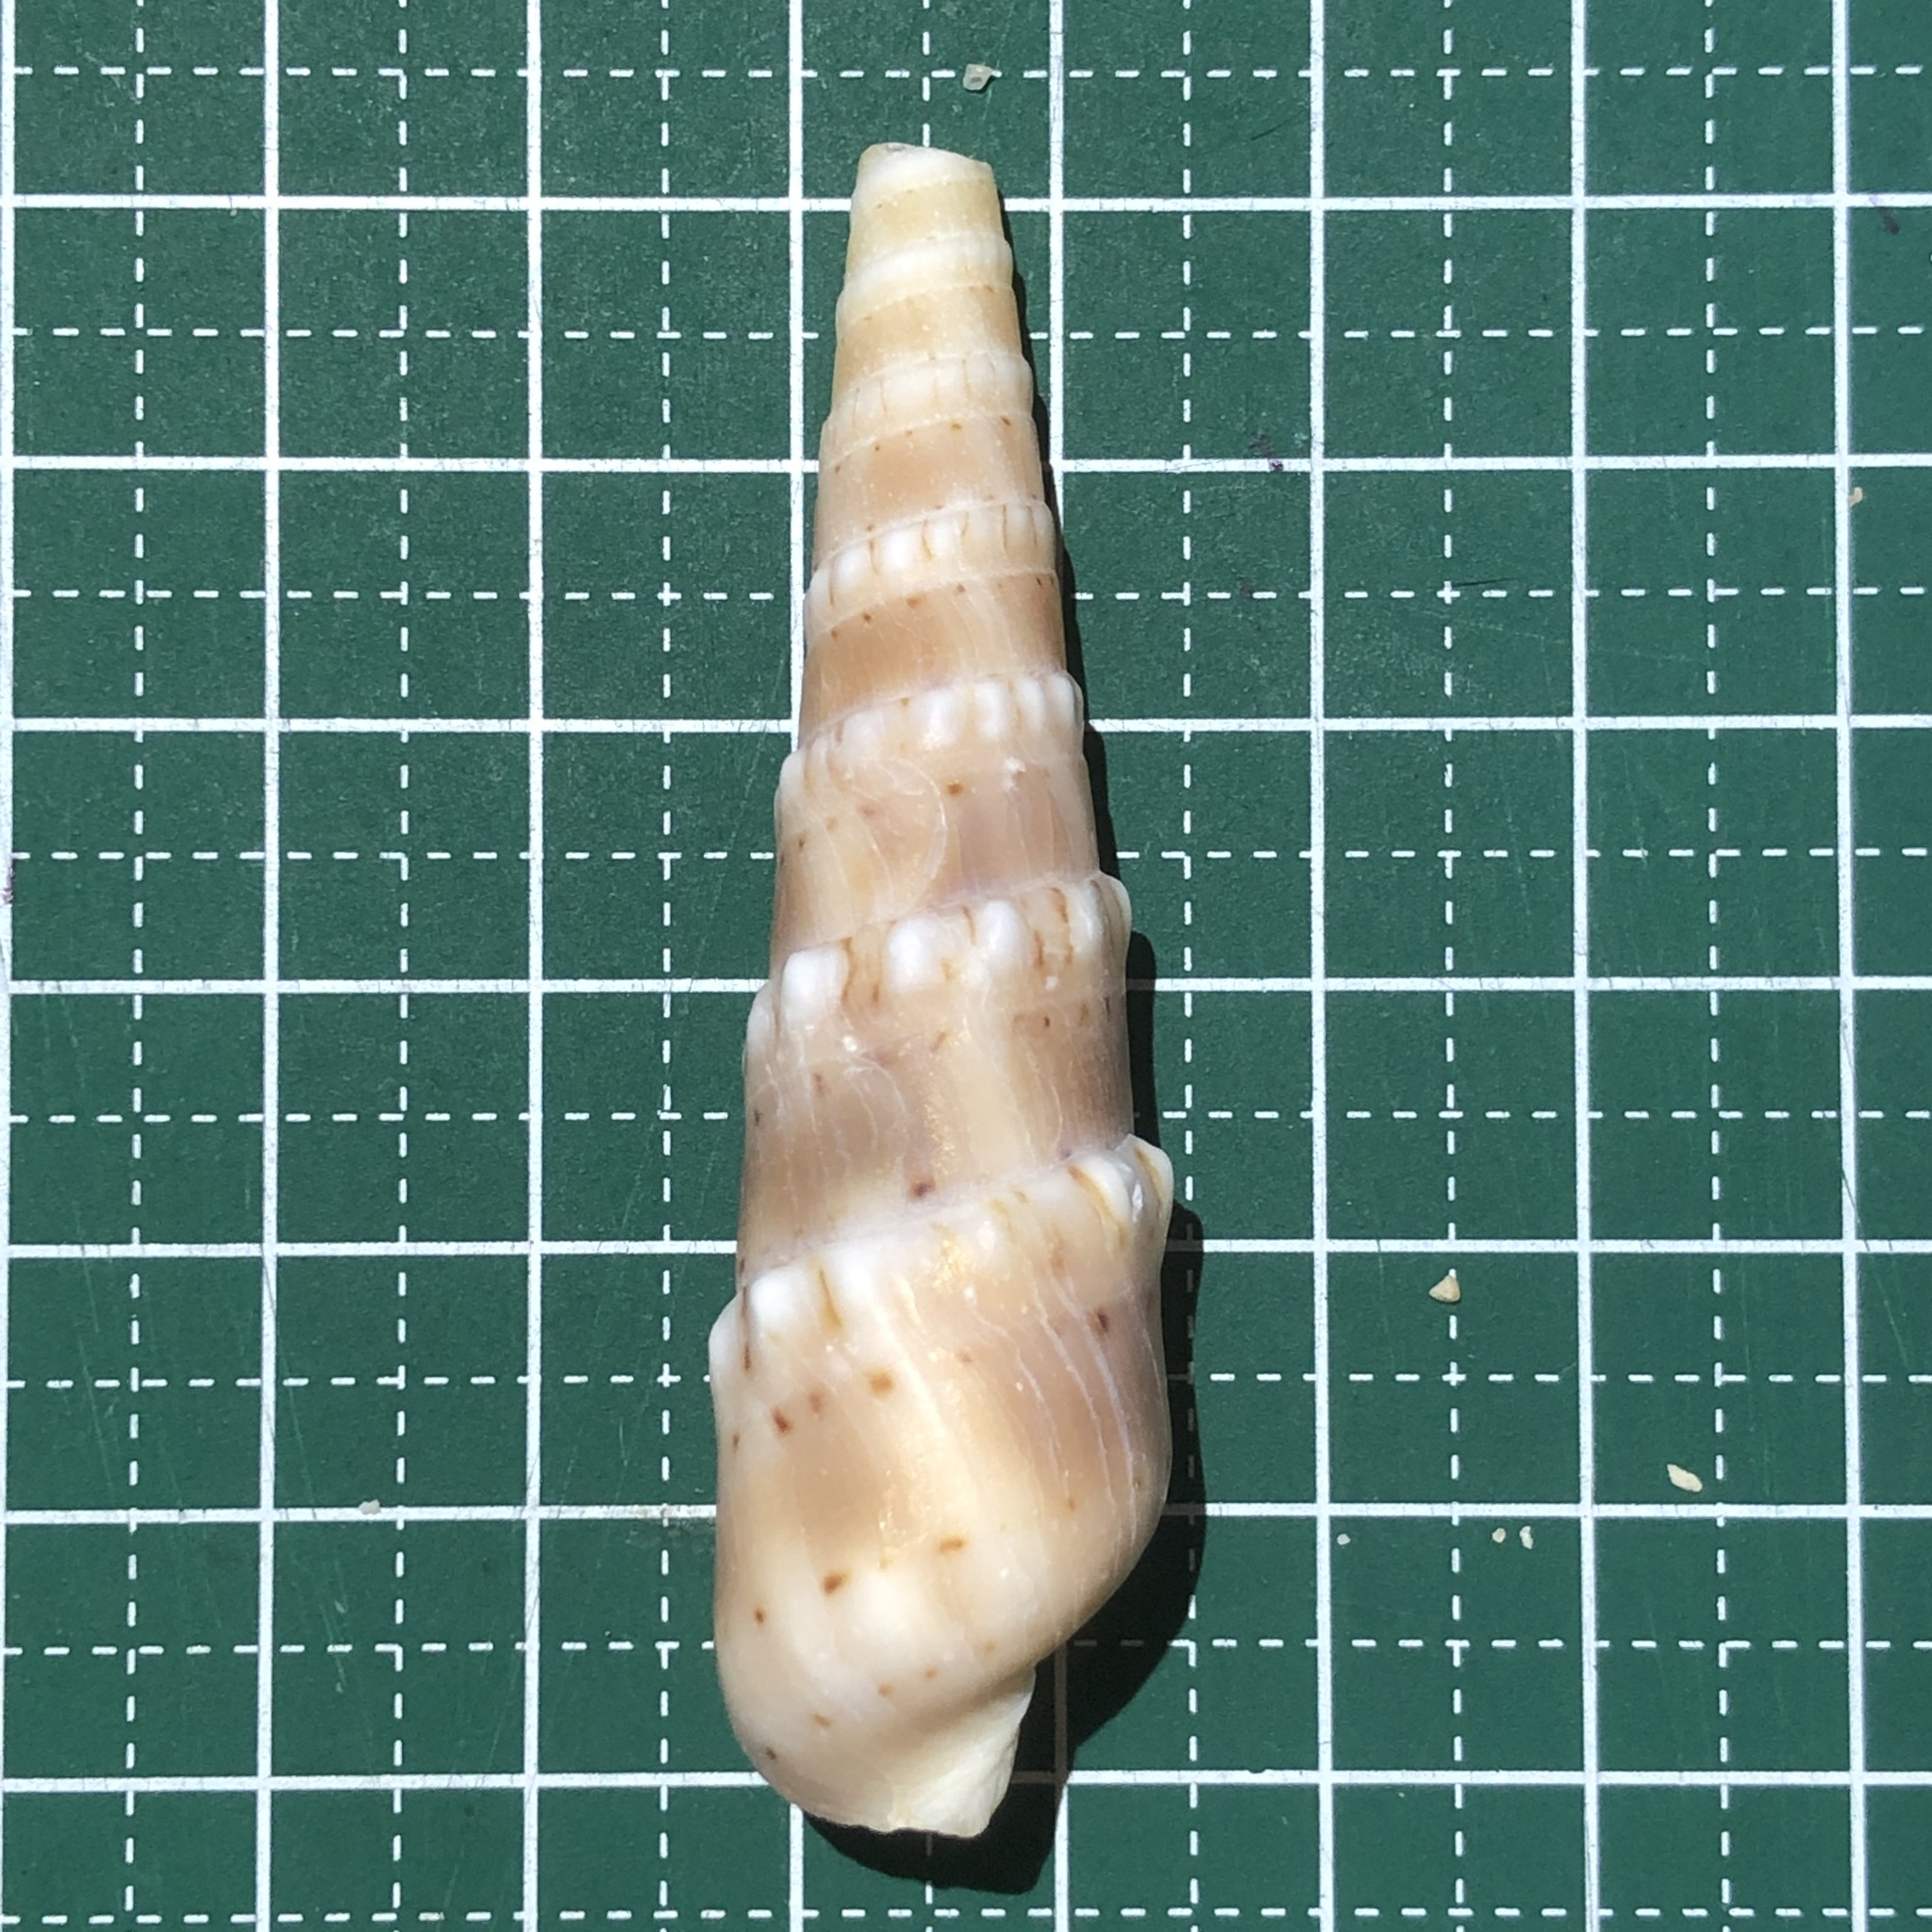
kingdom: Animalia
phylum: Mollusca
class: Gastropoda
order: Neogastropoda
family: Terebridae
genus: Oxymeris
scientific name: Oxymeris crenulata
